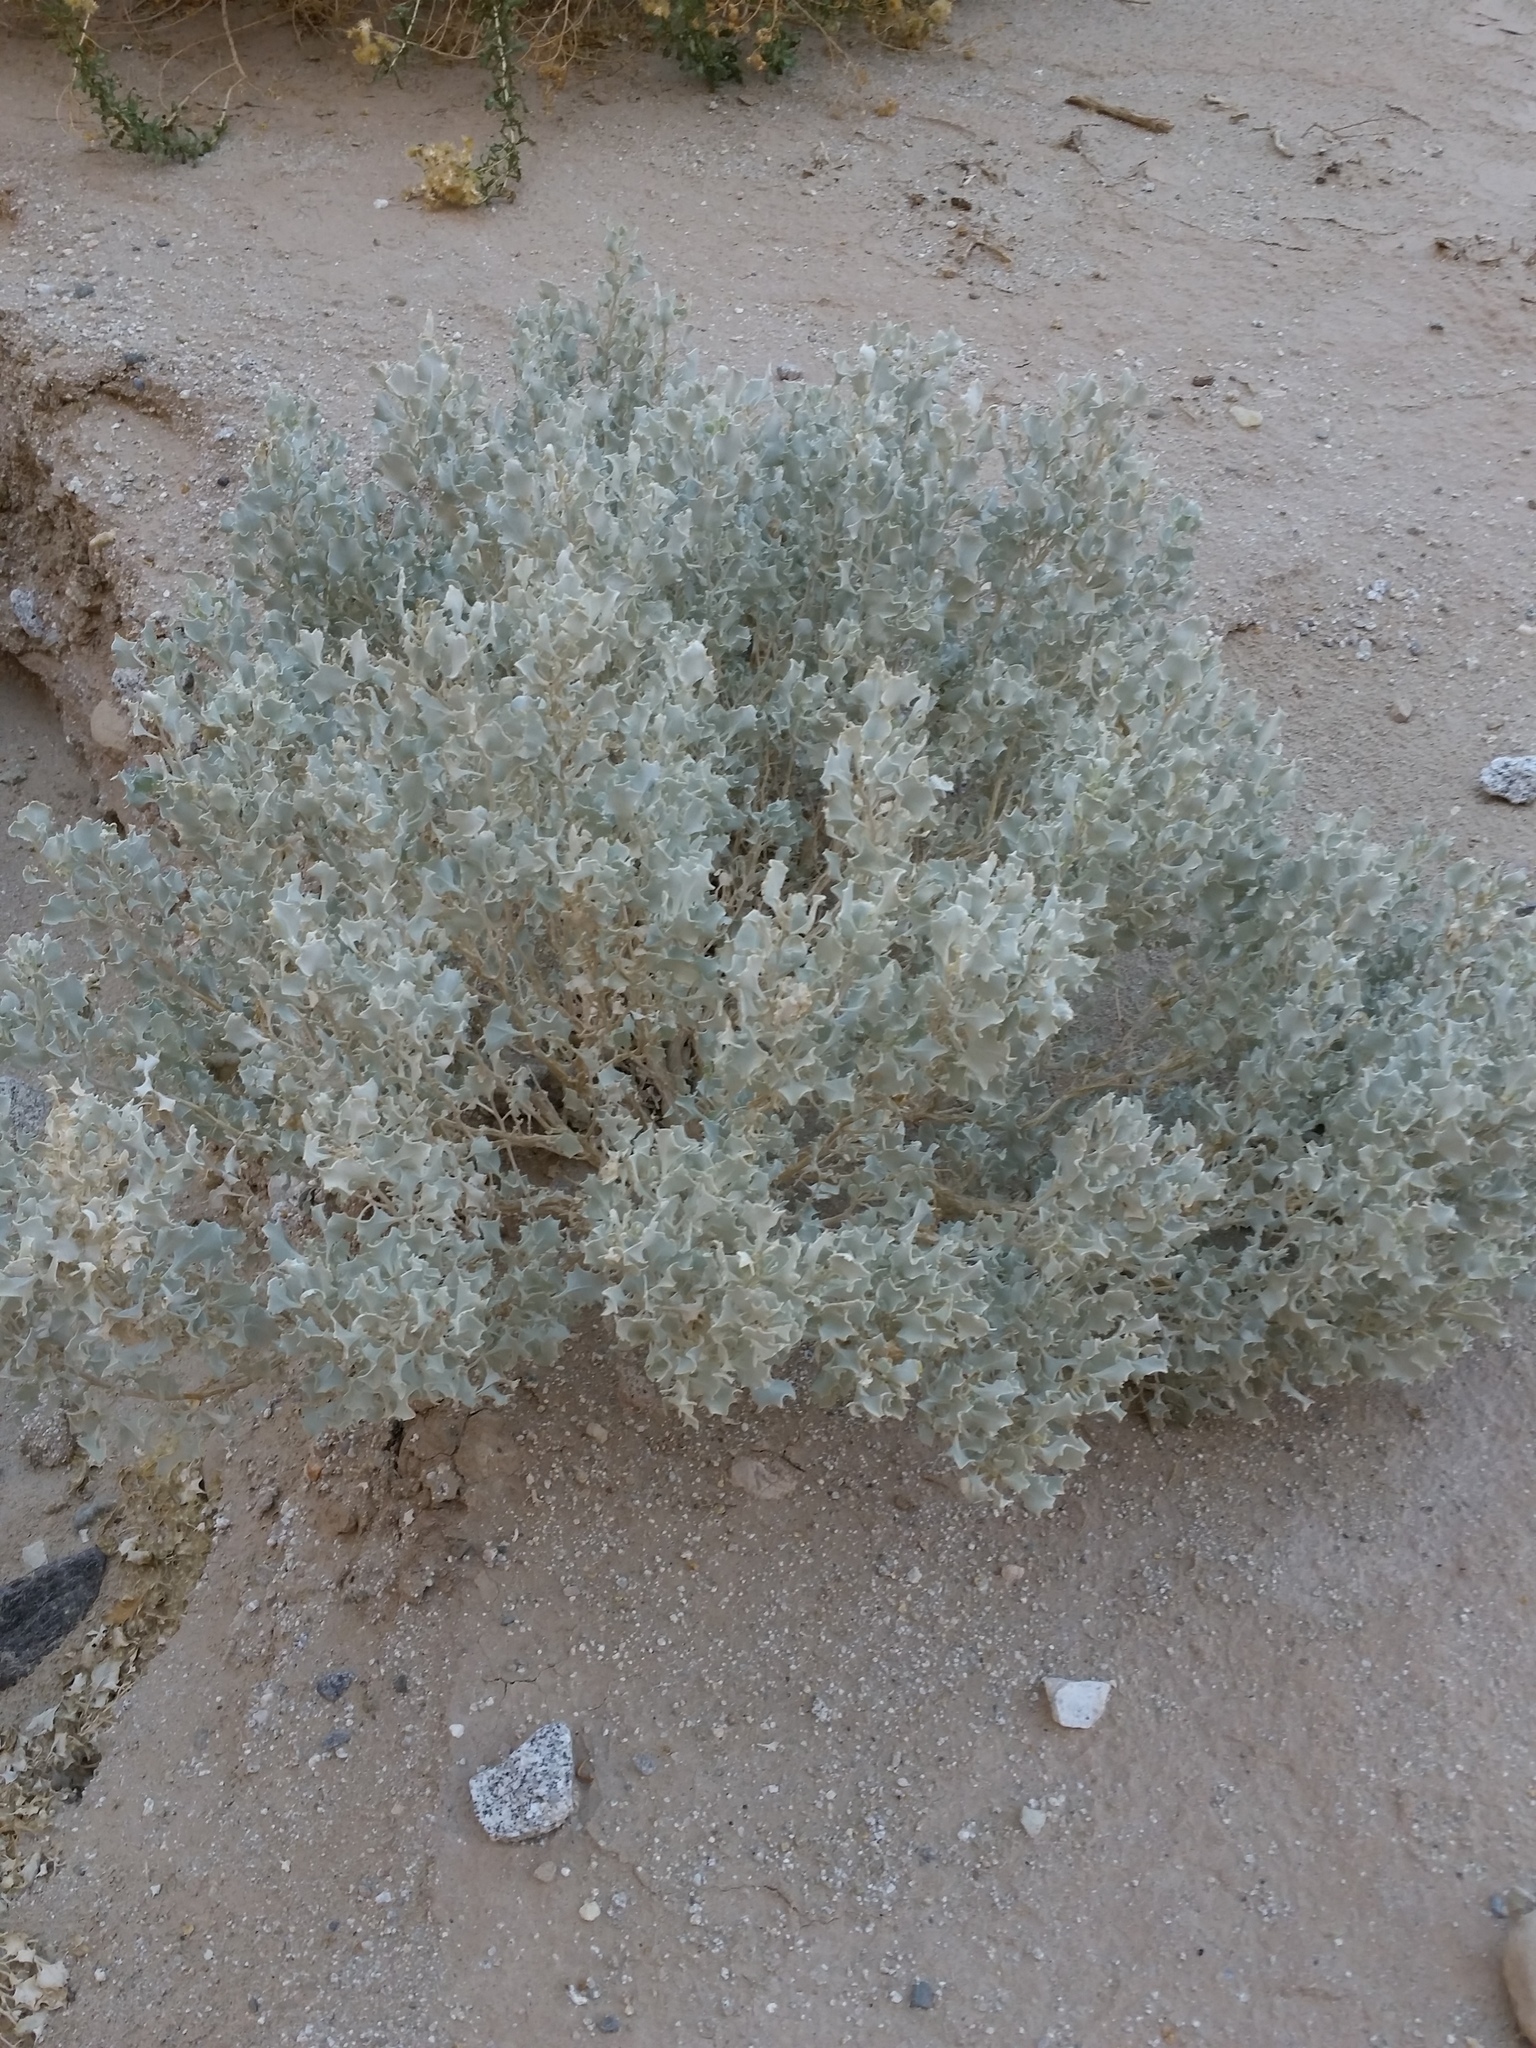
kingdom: Plantae
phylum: Tracheophyta
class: Magnoliopsida
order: Caryophyllales
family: Amaranthaceae
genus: Atriplex
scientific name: Atriplex hymenelytra
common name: Desert-holly
